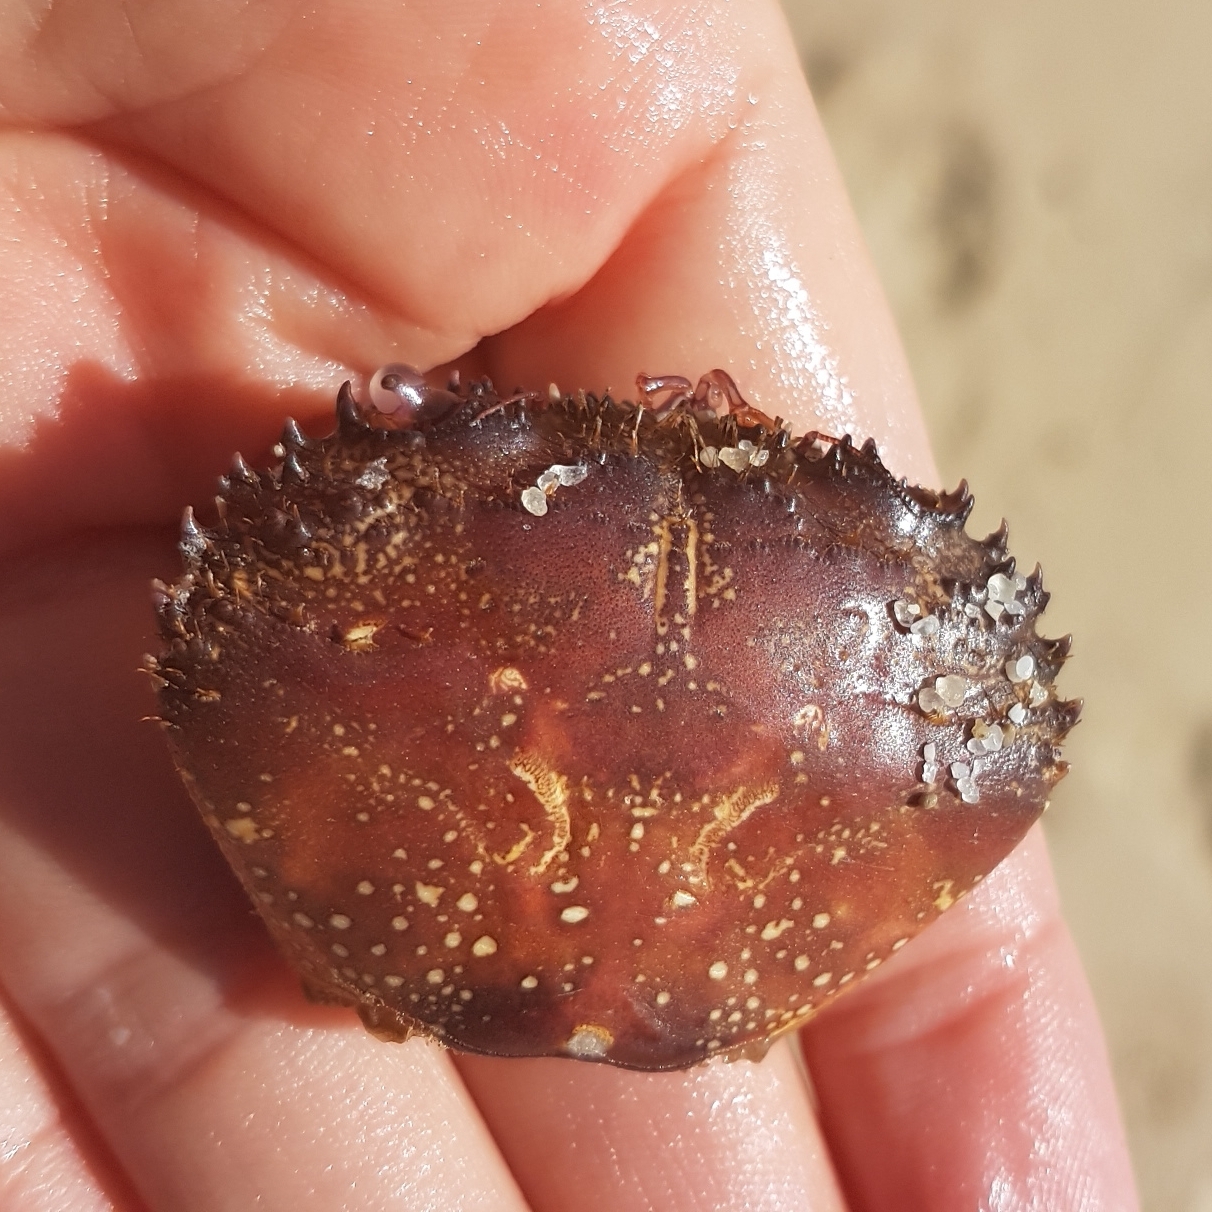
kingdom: Animalia
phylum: Arthropoda
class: Malacostraca
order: Decapoda
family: Eriphiidae
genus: Eriphia
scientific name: Eriphia verrucosa
